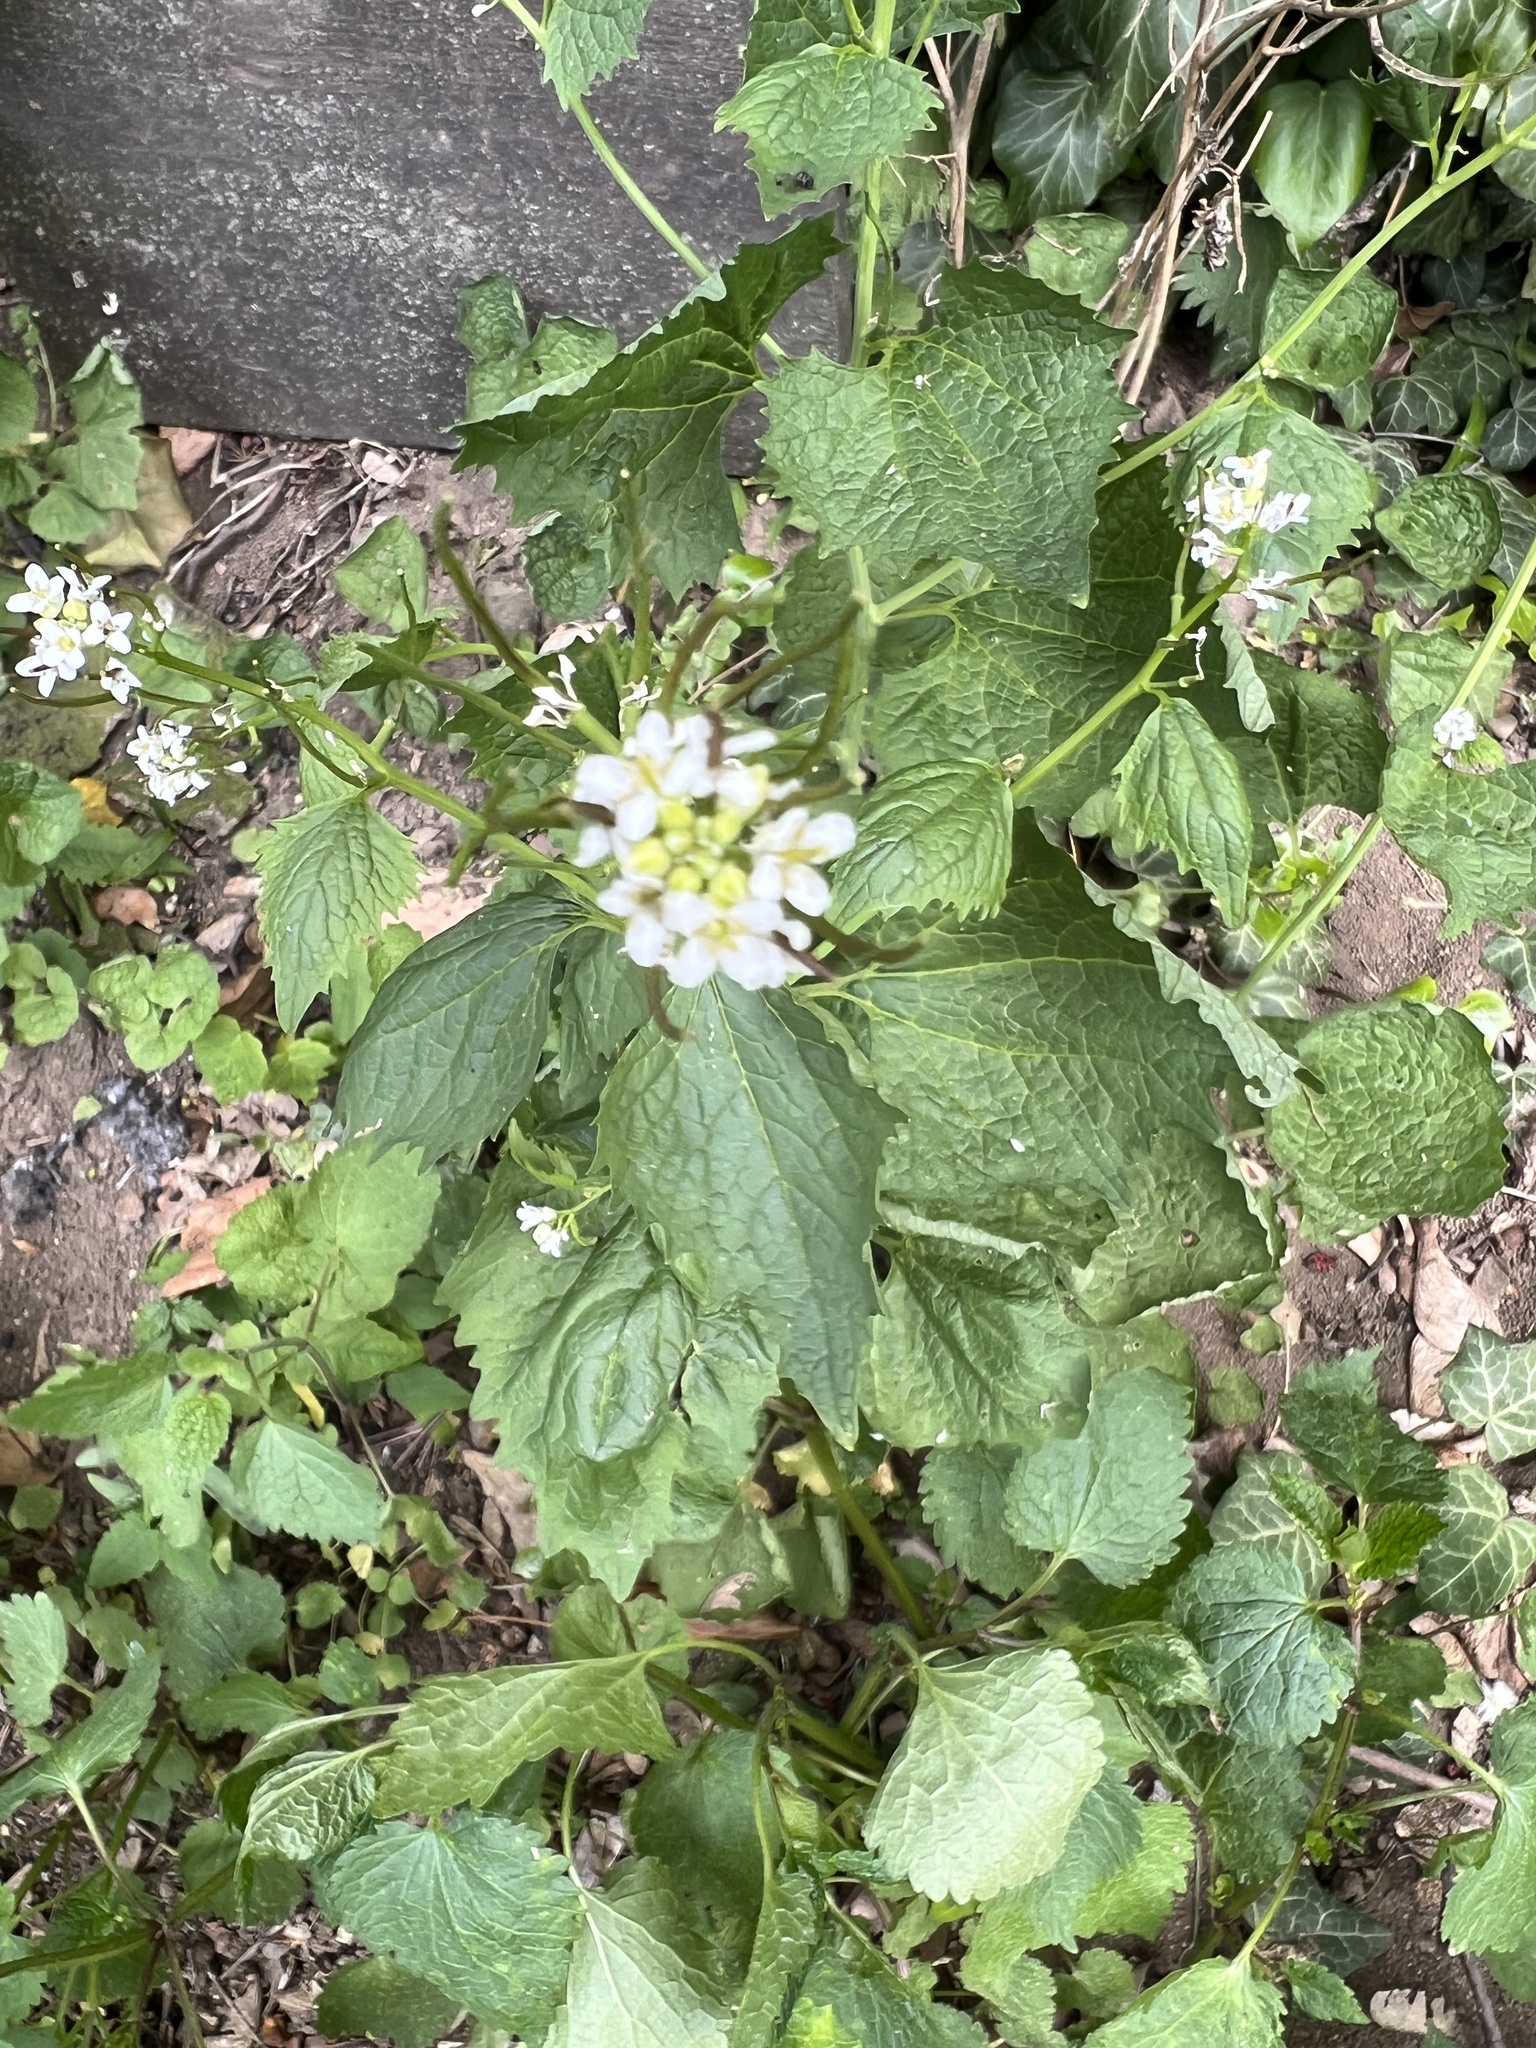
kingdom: Plantae
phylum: Tracheophyta
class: Magnoliopsida
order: Brassicales
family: Brassicaceae
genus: Alliaria
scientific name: Alliaria petiolata
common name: Garlic mustard
